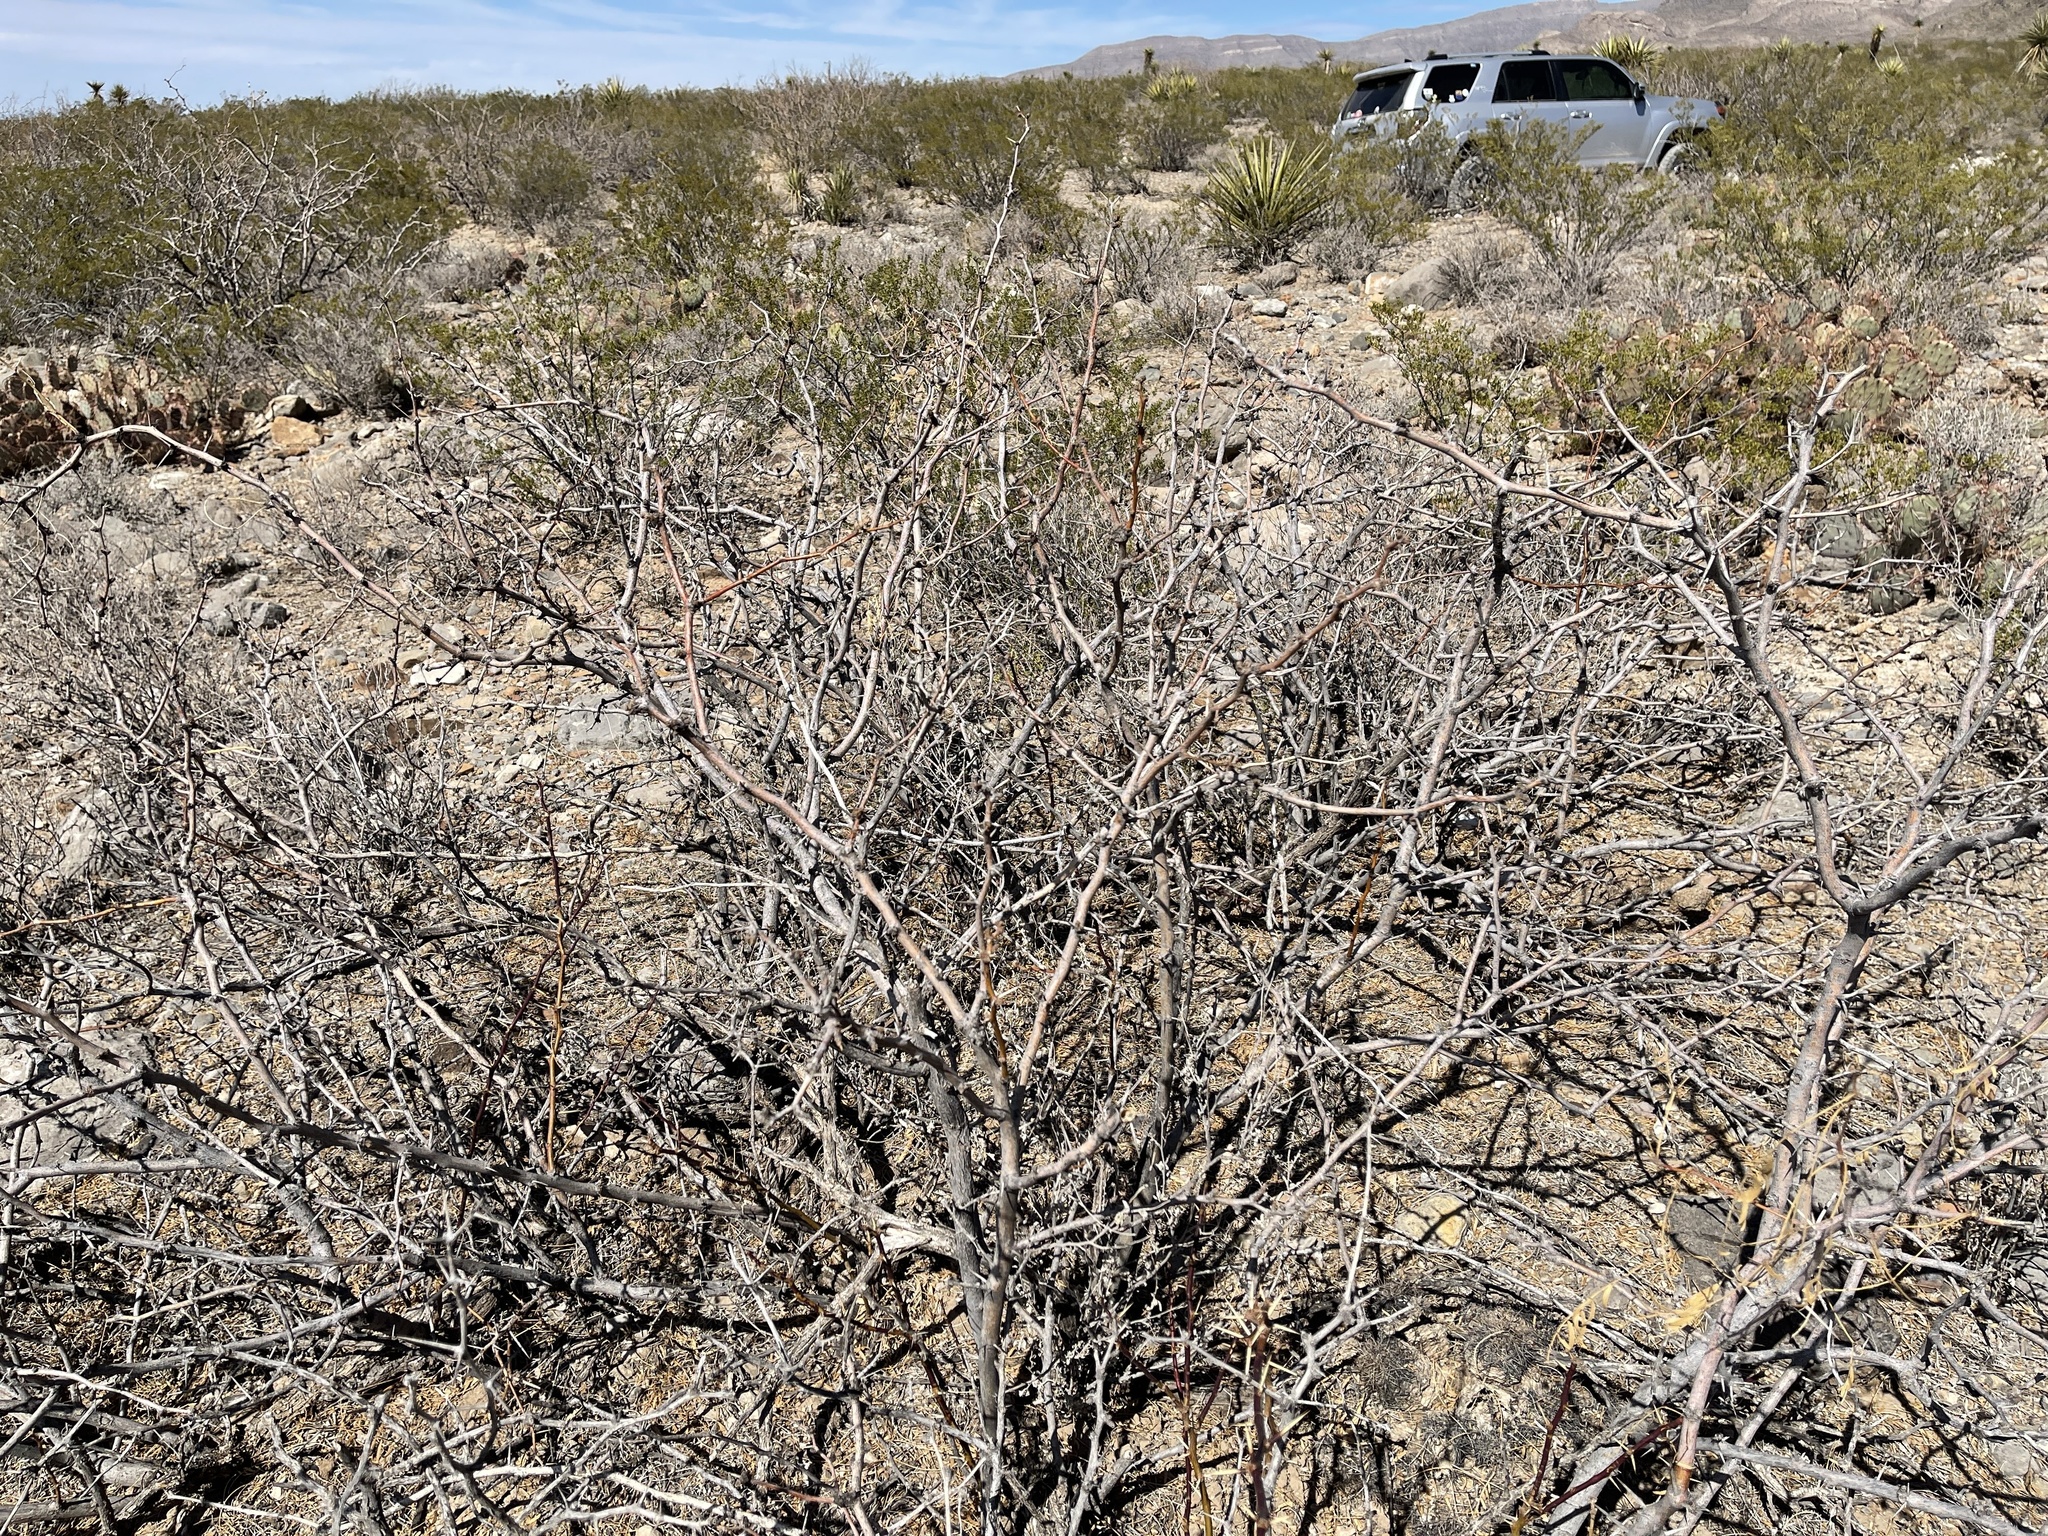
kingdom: Plantae
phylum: Tracheophyta
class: Magnoliopsida
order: Fabales
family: Fabaceae
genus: Prosopis
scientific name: Prosopis glandulosa
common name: Honey mesquite
